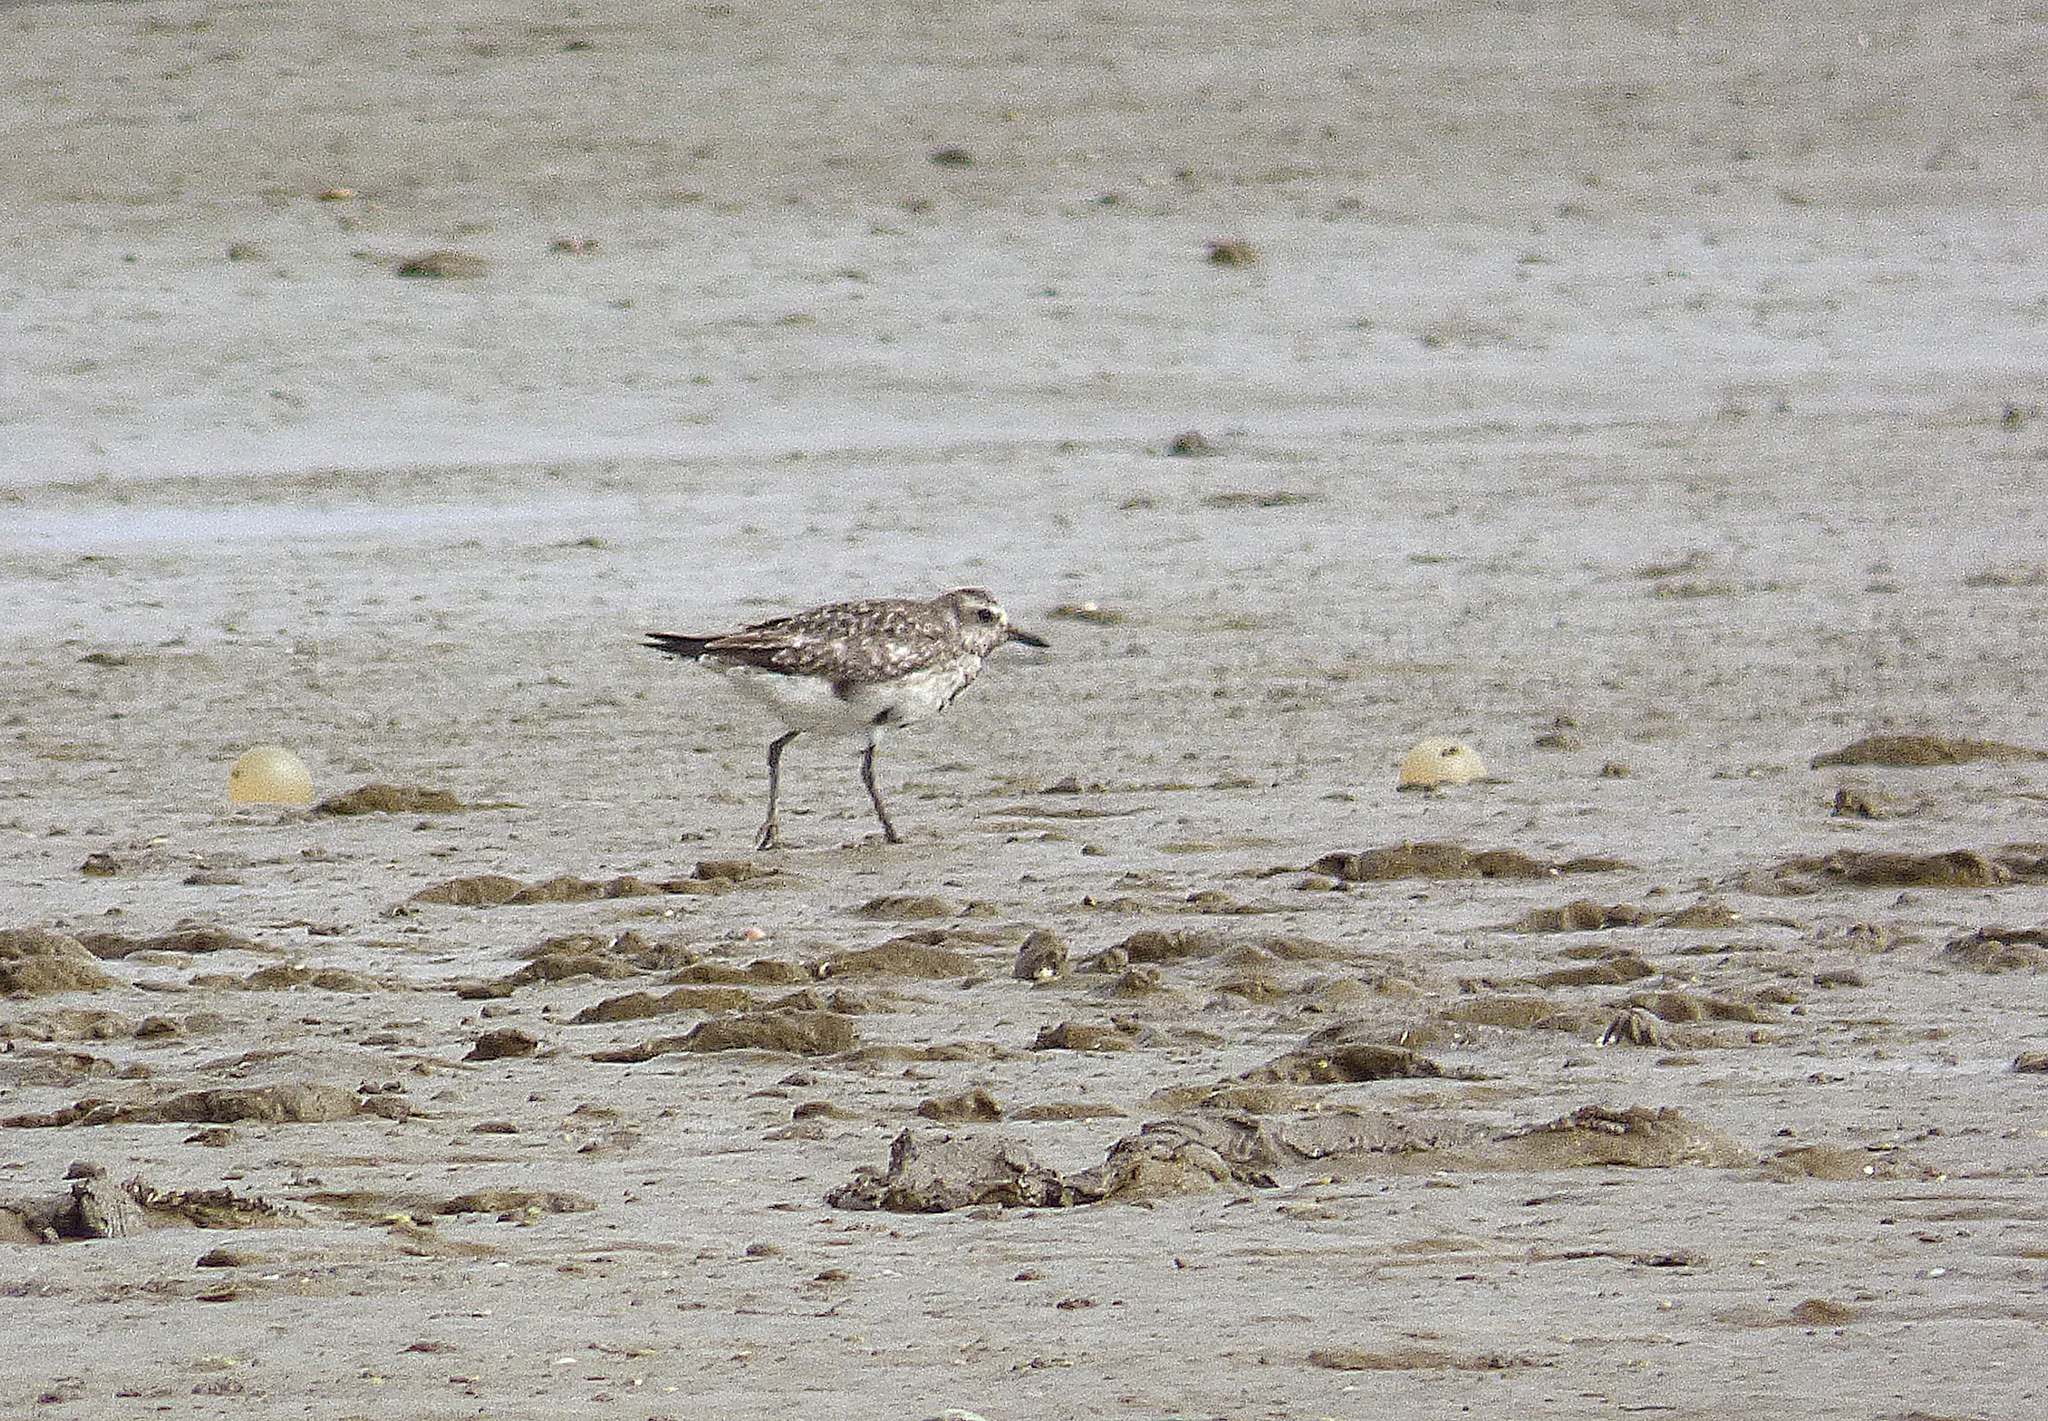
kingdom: Animalia
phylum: Chordata
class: Aves
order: Charadriiformes
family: Charadriidae
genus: Pluvialis
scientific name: Pluvialis squatarola
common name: Grey plover
